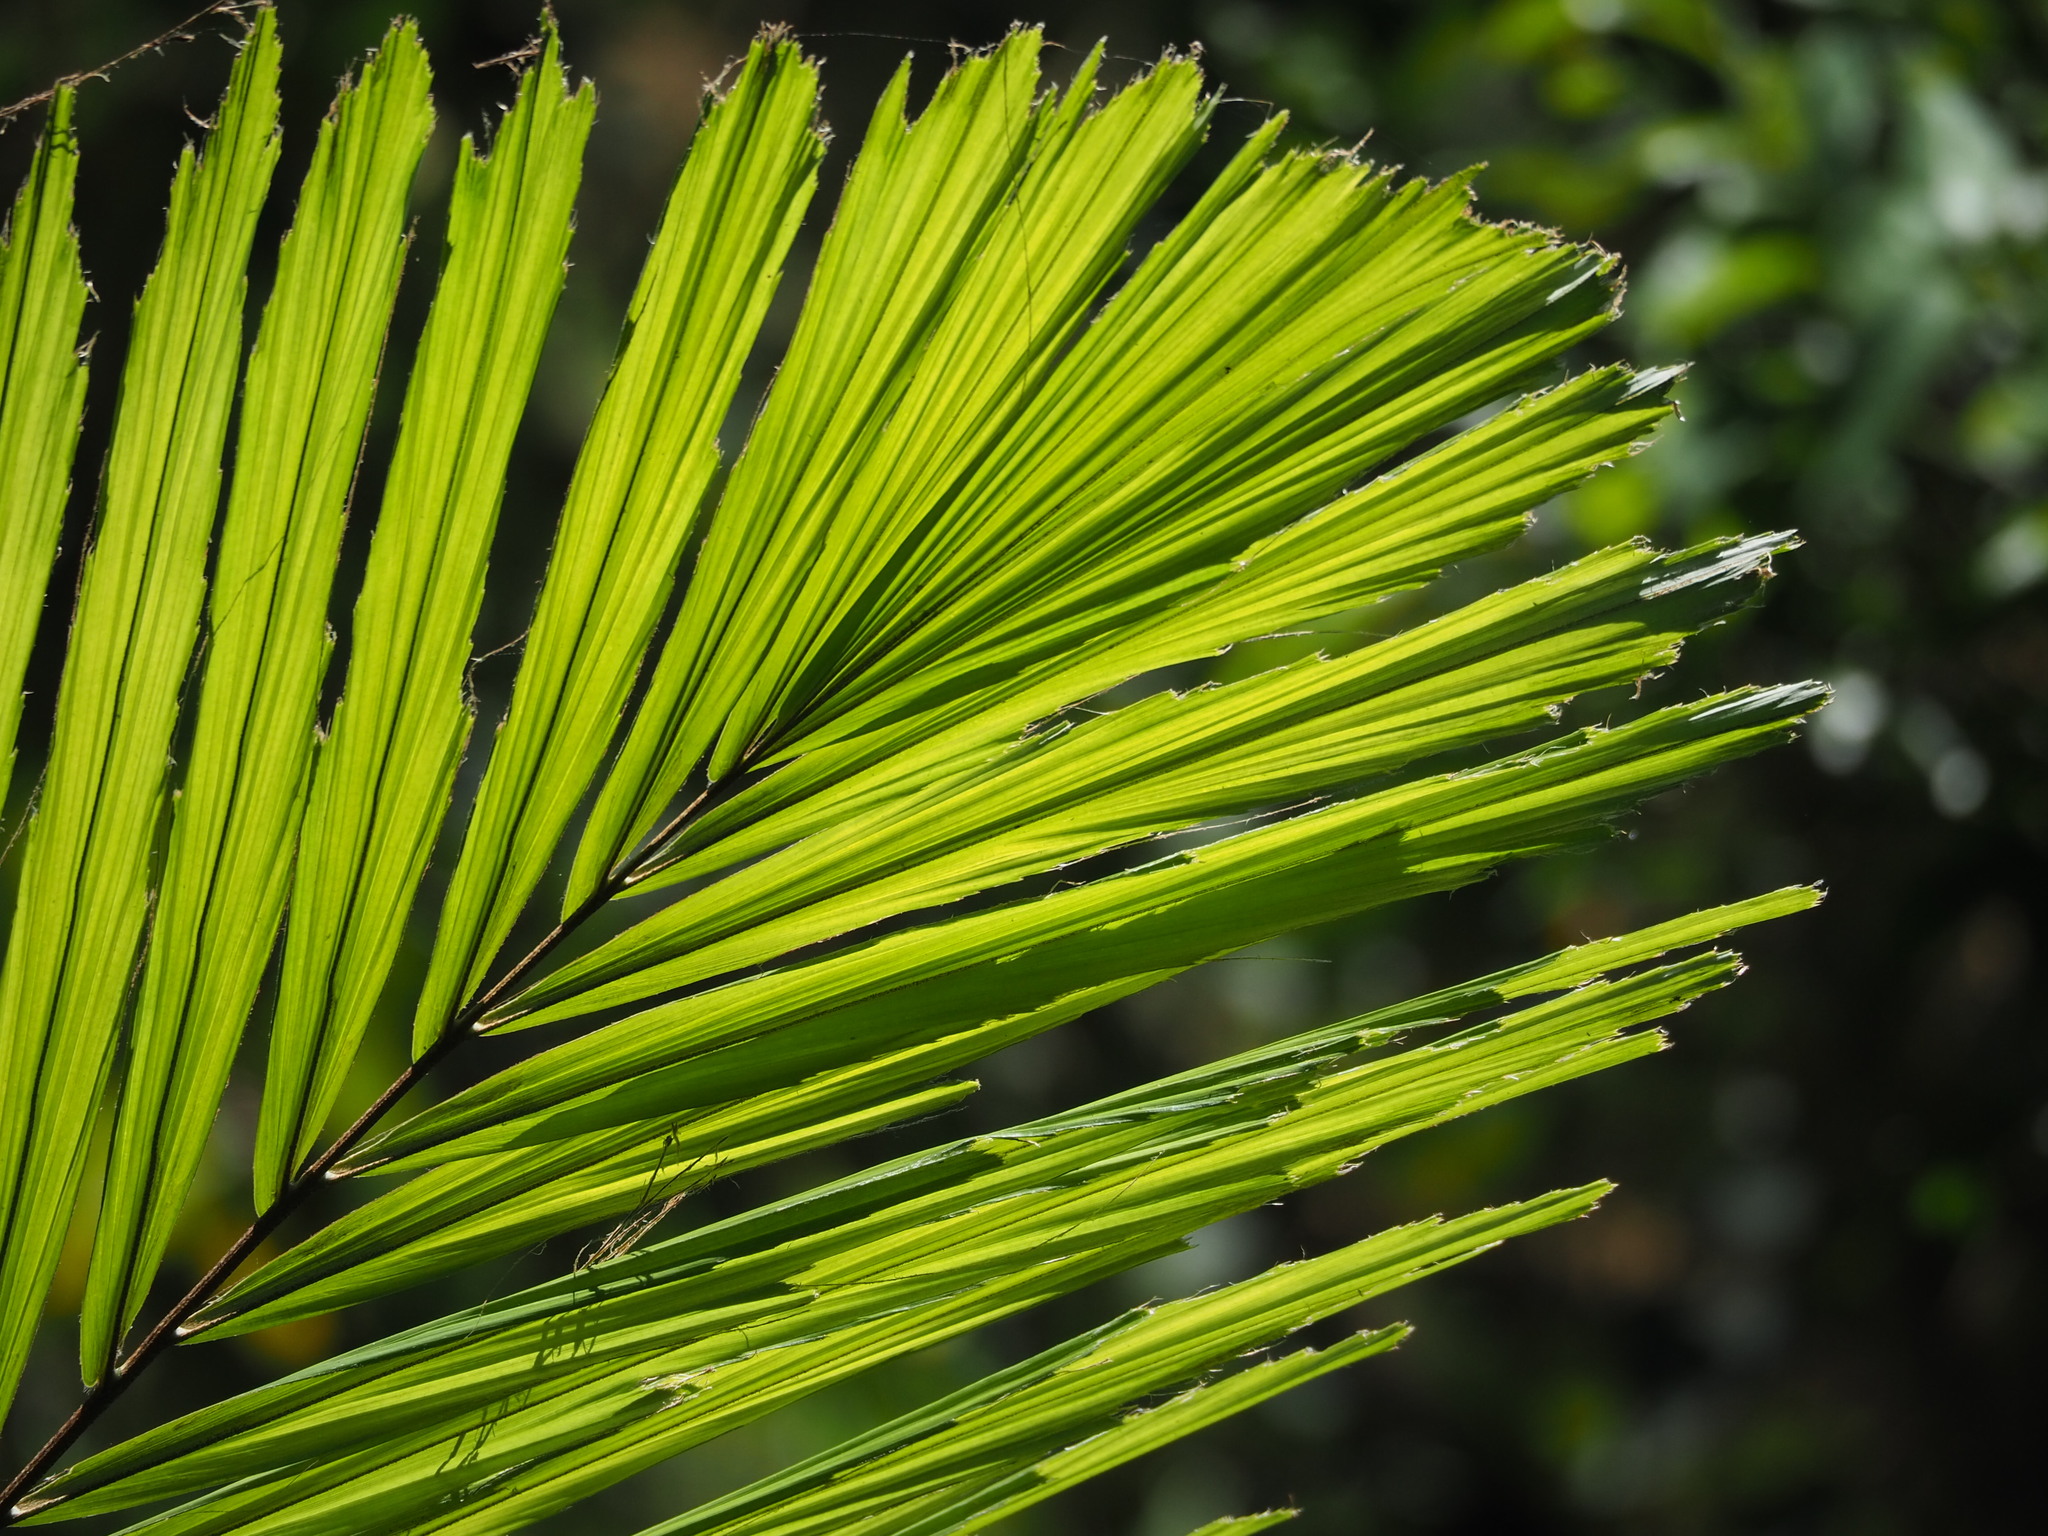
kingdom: Plantae
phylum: Tracheophyta
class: Liliopsida
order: Arecales
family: Arecaceae
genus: Arenga
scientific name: Arenga engleri
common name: Formosan sugar palm
